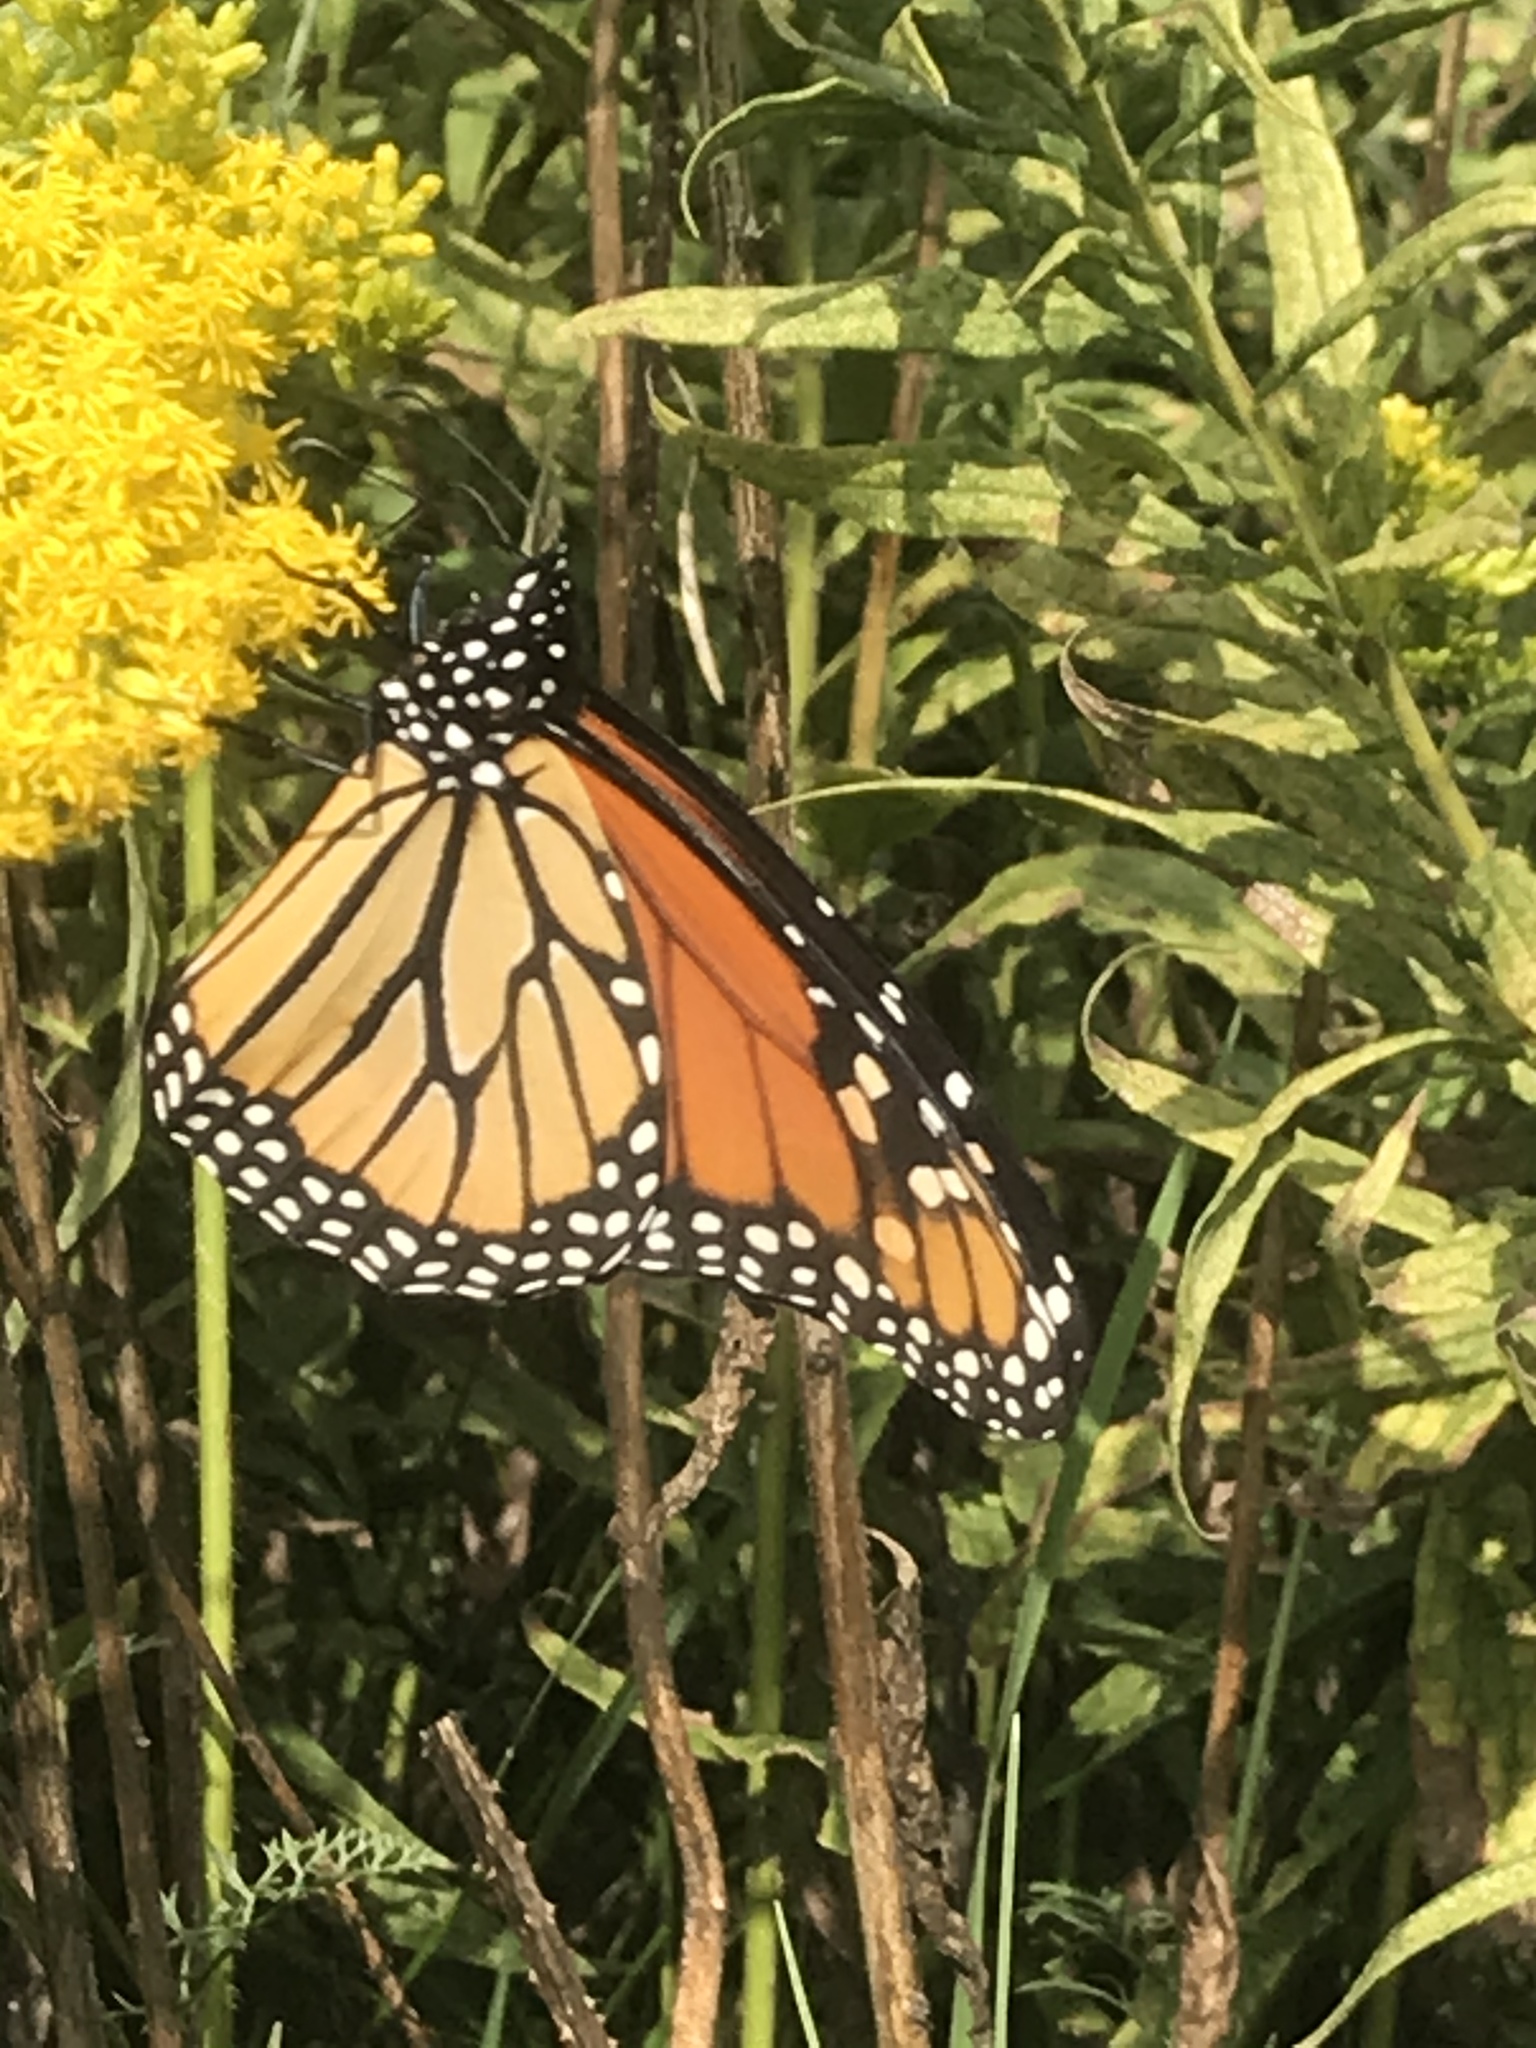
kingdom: Animalia
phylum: Arthropoda
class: Insecta
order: Lepidoptera
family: Nymphalidae
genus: Danaus
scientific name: Danaus plexippus
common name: Monarch
